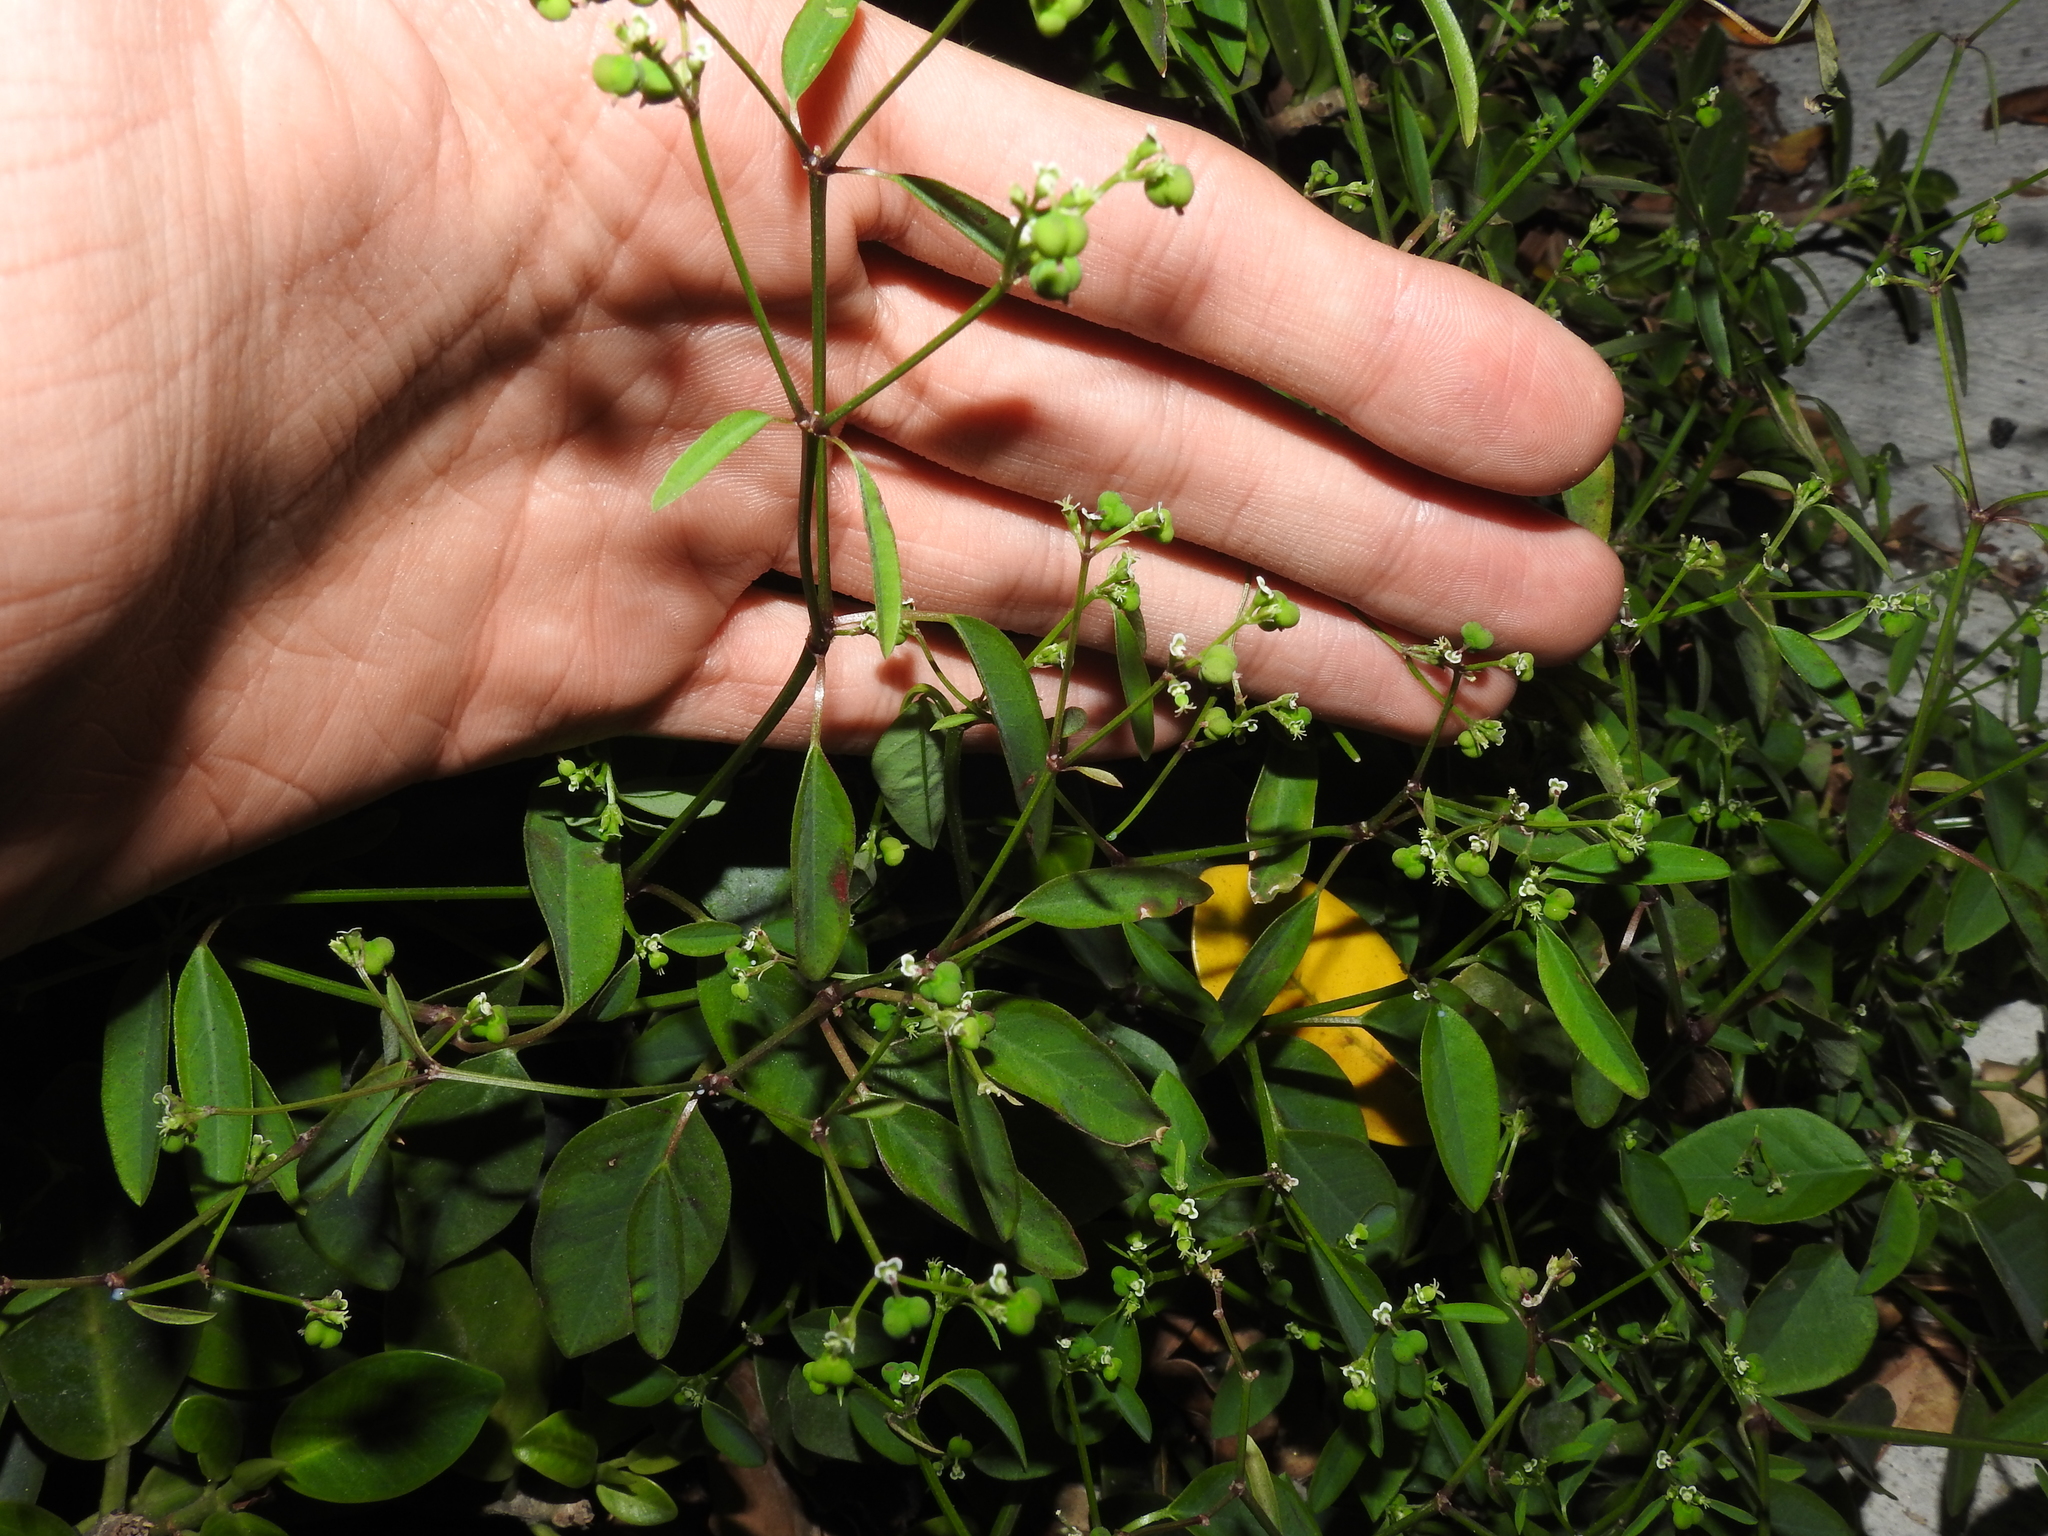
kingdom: Plantae
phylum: Tracheophyta
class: Magnoliopsida
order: Malpighiales
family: Euphorbiaceae
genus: Euphorbia
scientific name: Euphorbia graminea
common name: Grassleaf spurge
